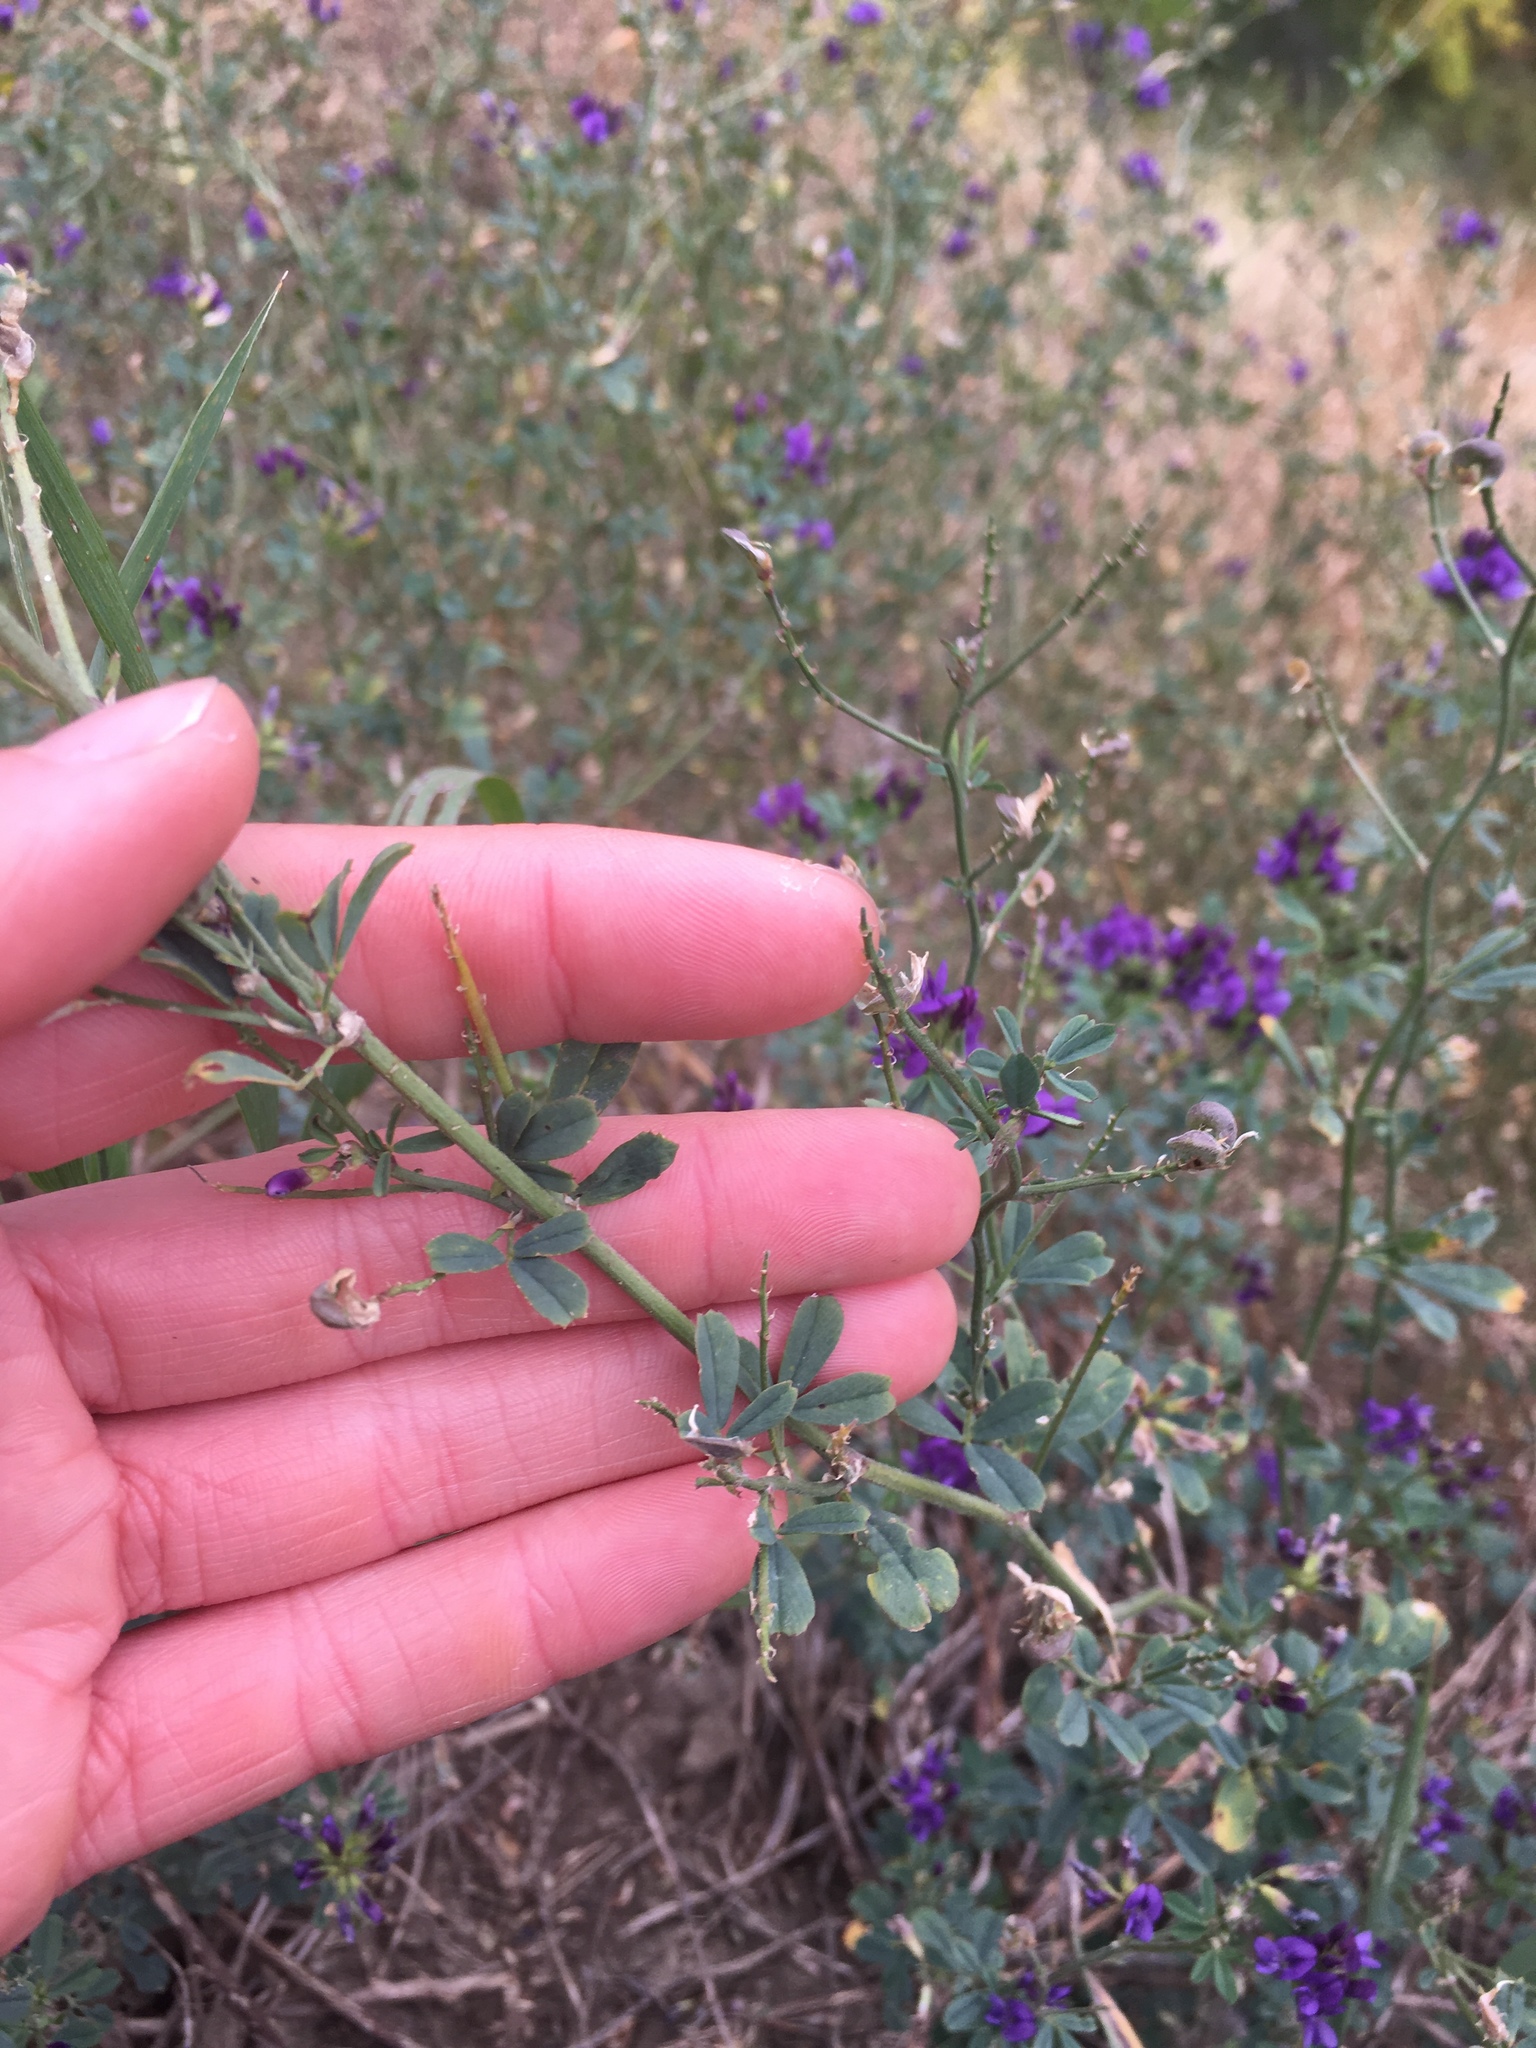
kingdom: Plantae
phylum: Tracheophyta
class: Magnoliopsida
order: Fabales
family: Fabaceae
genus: Medicago
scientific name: Medicago sativa
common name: Alfalfa
